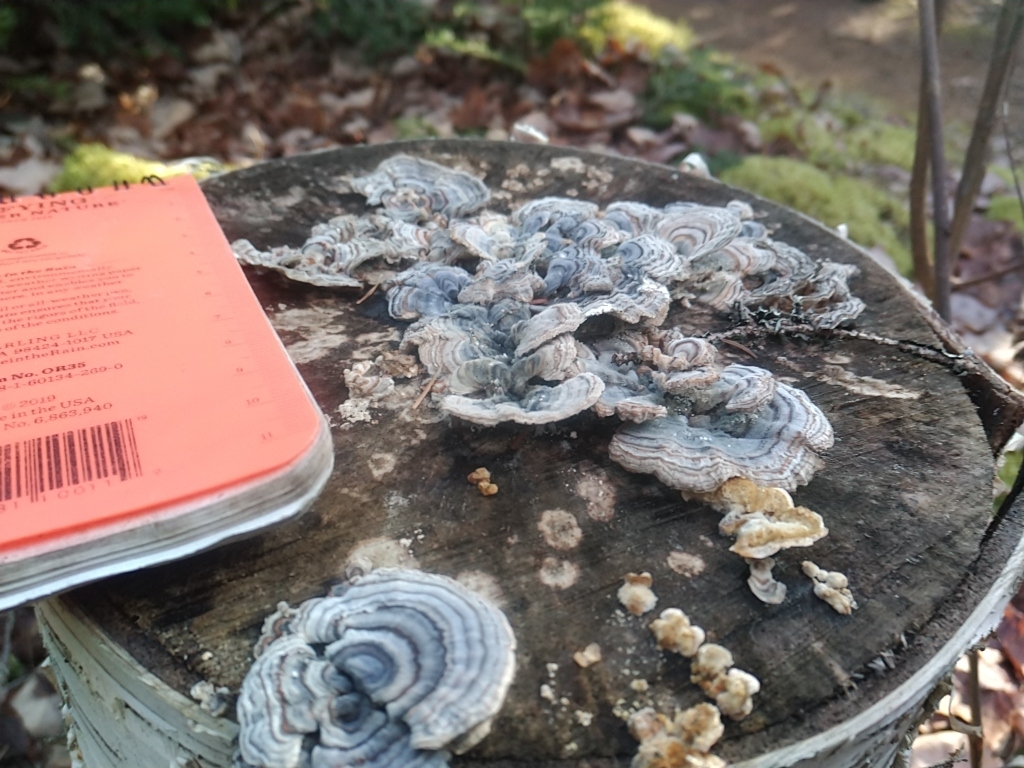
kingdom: Fungi
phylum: Basidiomycota
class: Agaricomycetes
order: Polyporales
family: Polyporaceae
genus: Trametes
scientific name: Trametes versicolor
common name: Turkeytail
